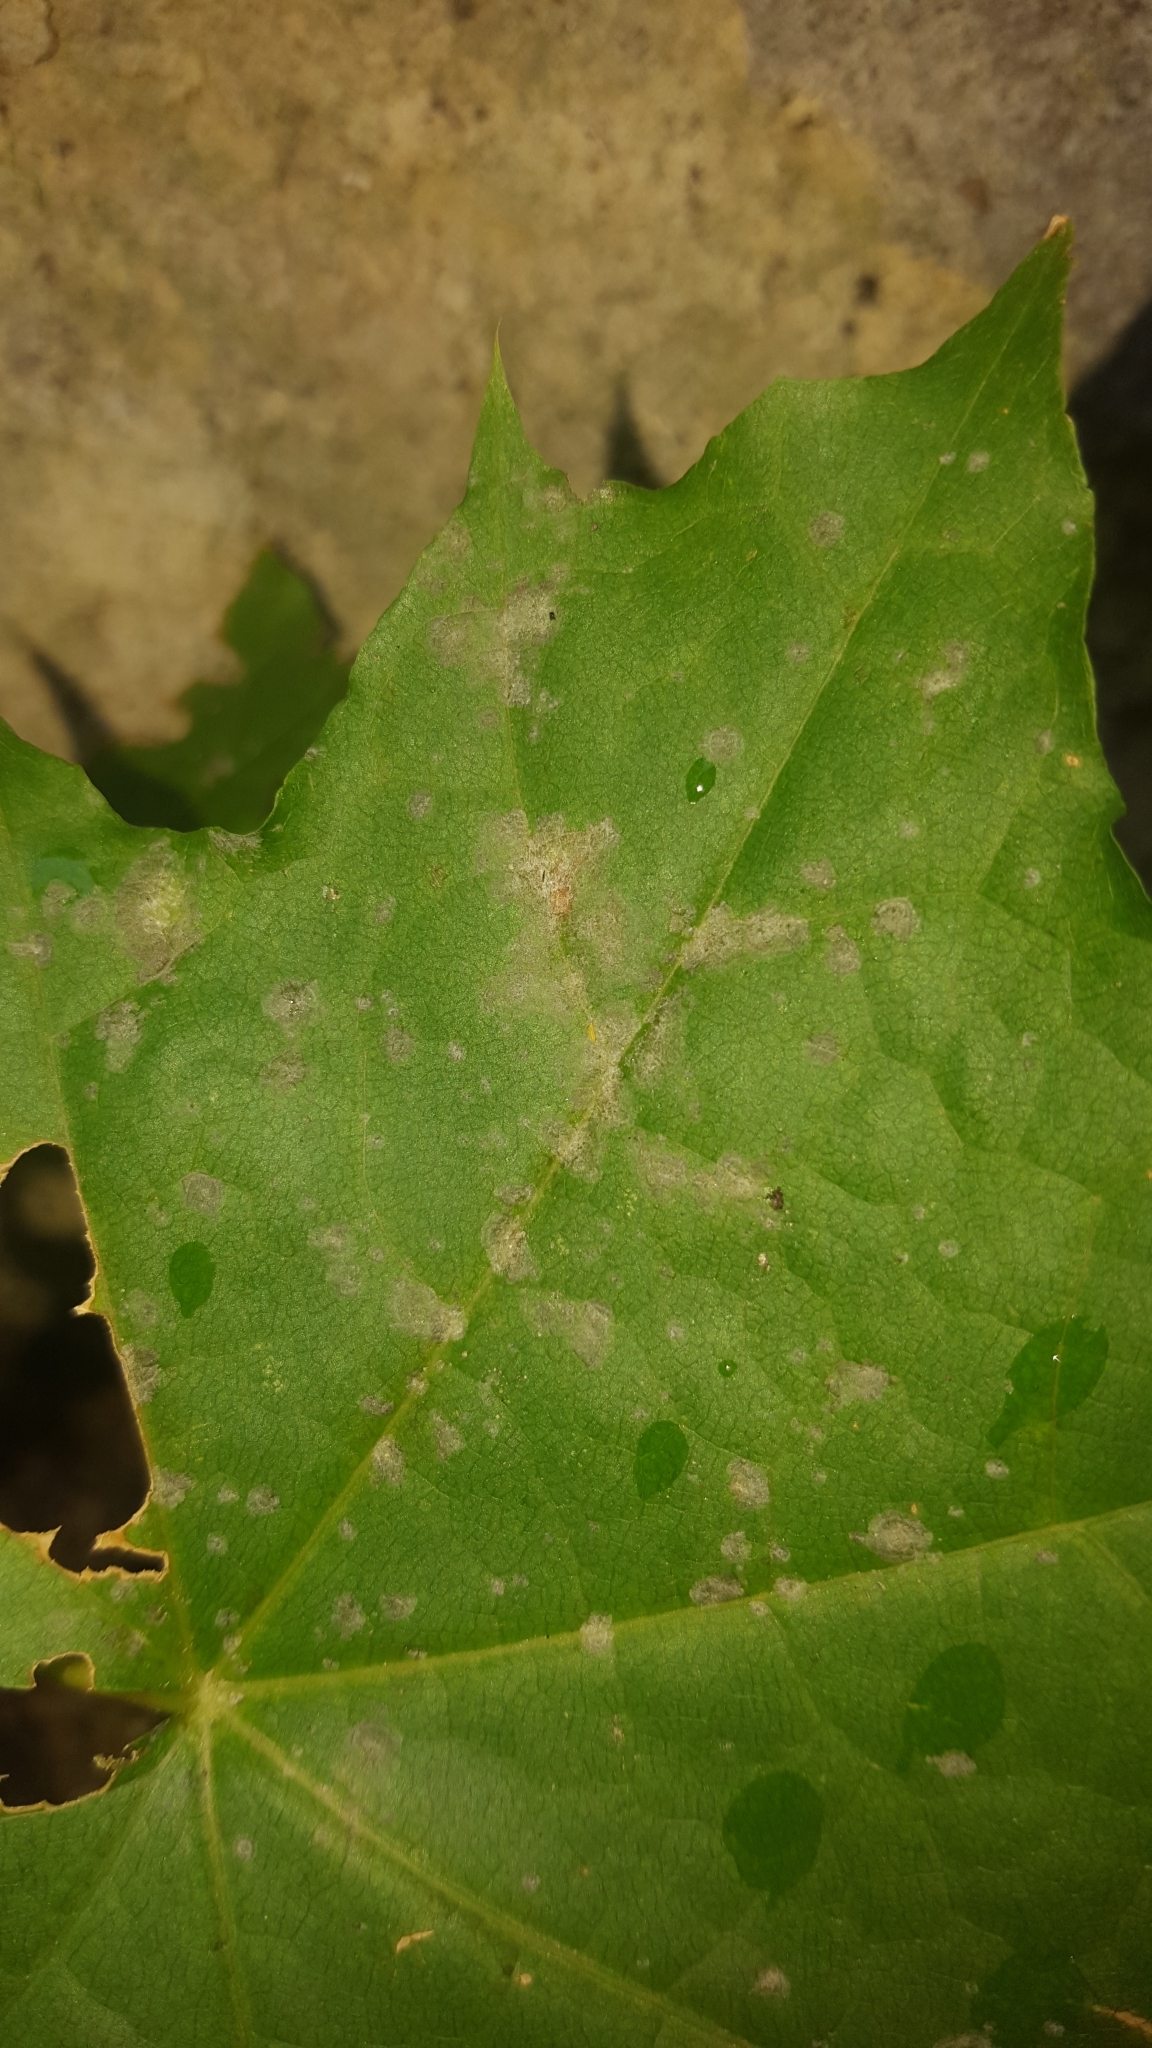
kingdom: Fungi
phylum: Ascomycota
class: Leotiomycetes
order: Helotiales
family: Erysiphaceae
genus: Sawadaea
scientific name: Sawadaea tulasnei
